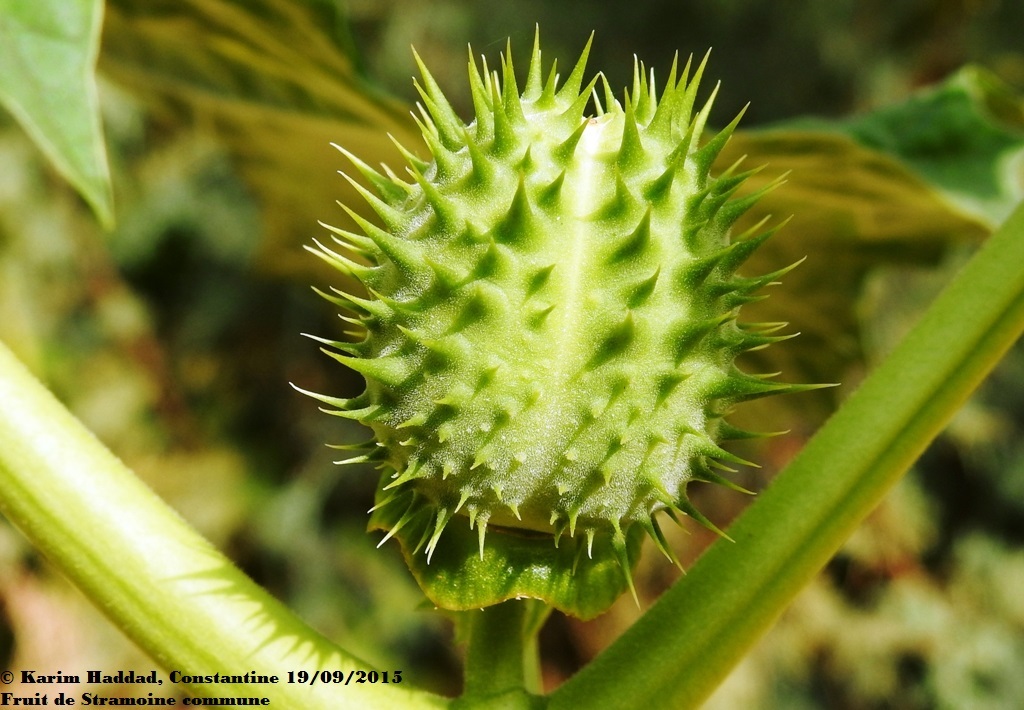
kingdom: Plantae
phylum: Tracheophyta
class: Magnoliopsida
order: Solanales
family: Solanaceae
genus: Datura
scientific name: Datura stramonium
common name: Thorn-apple
